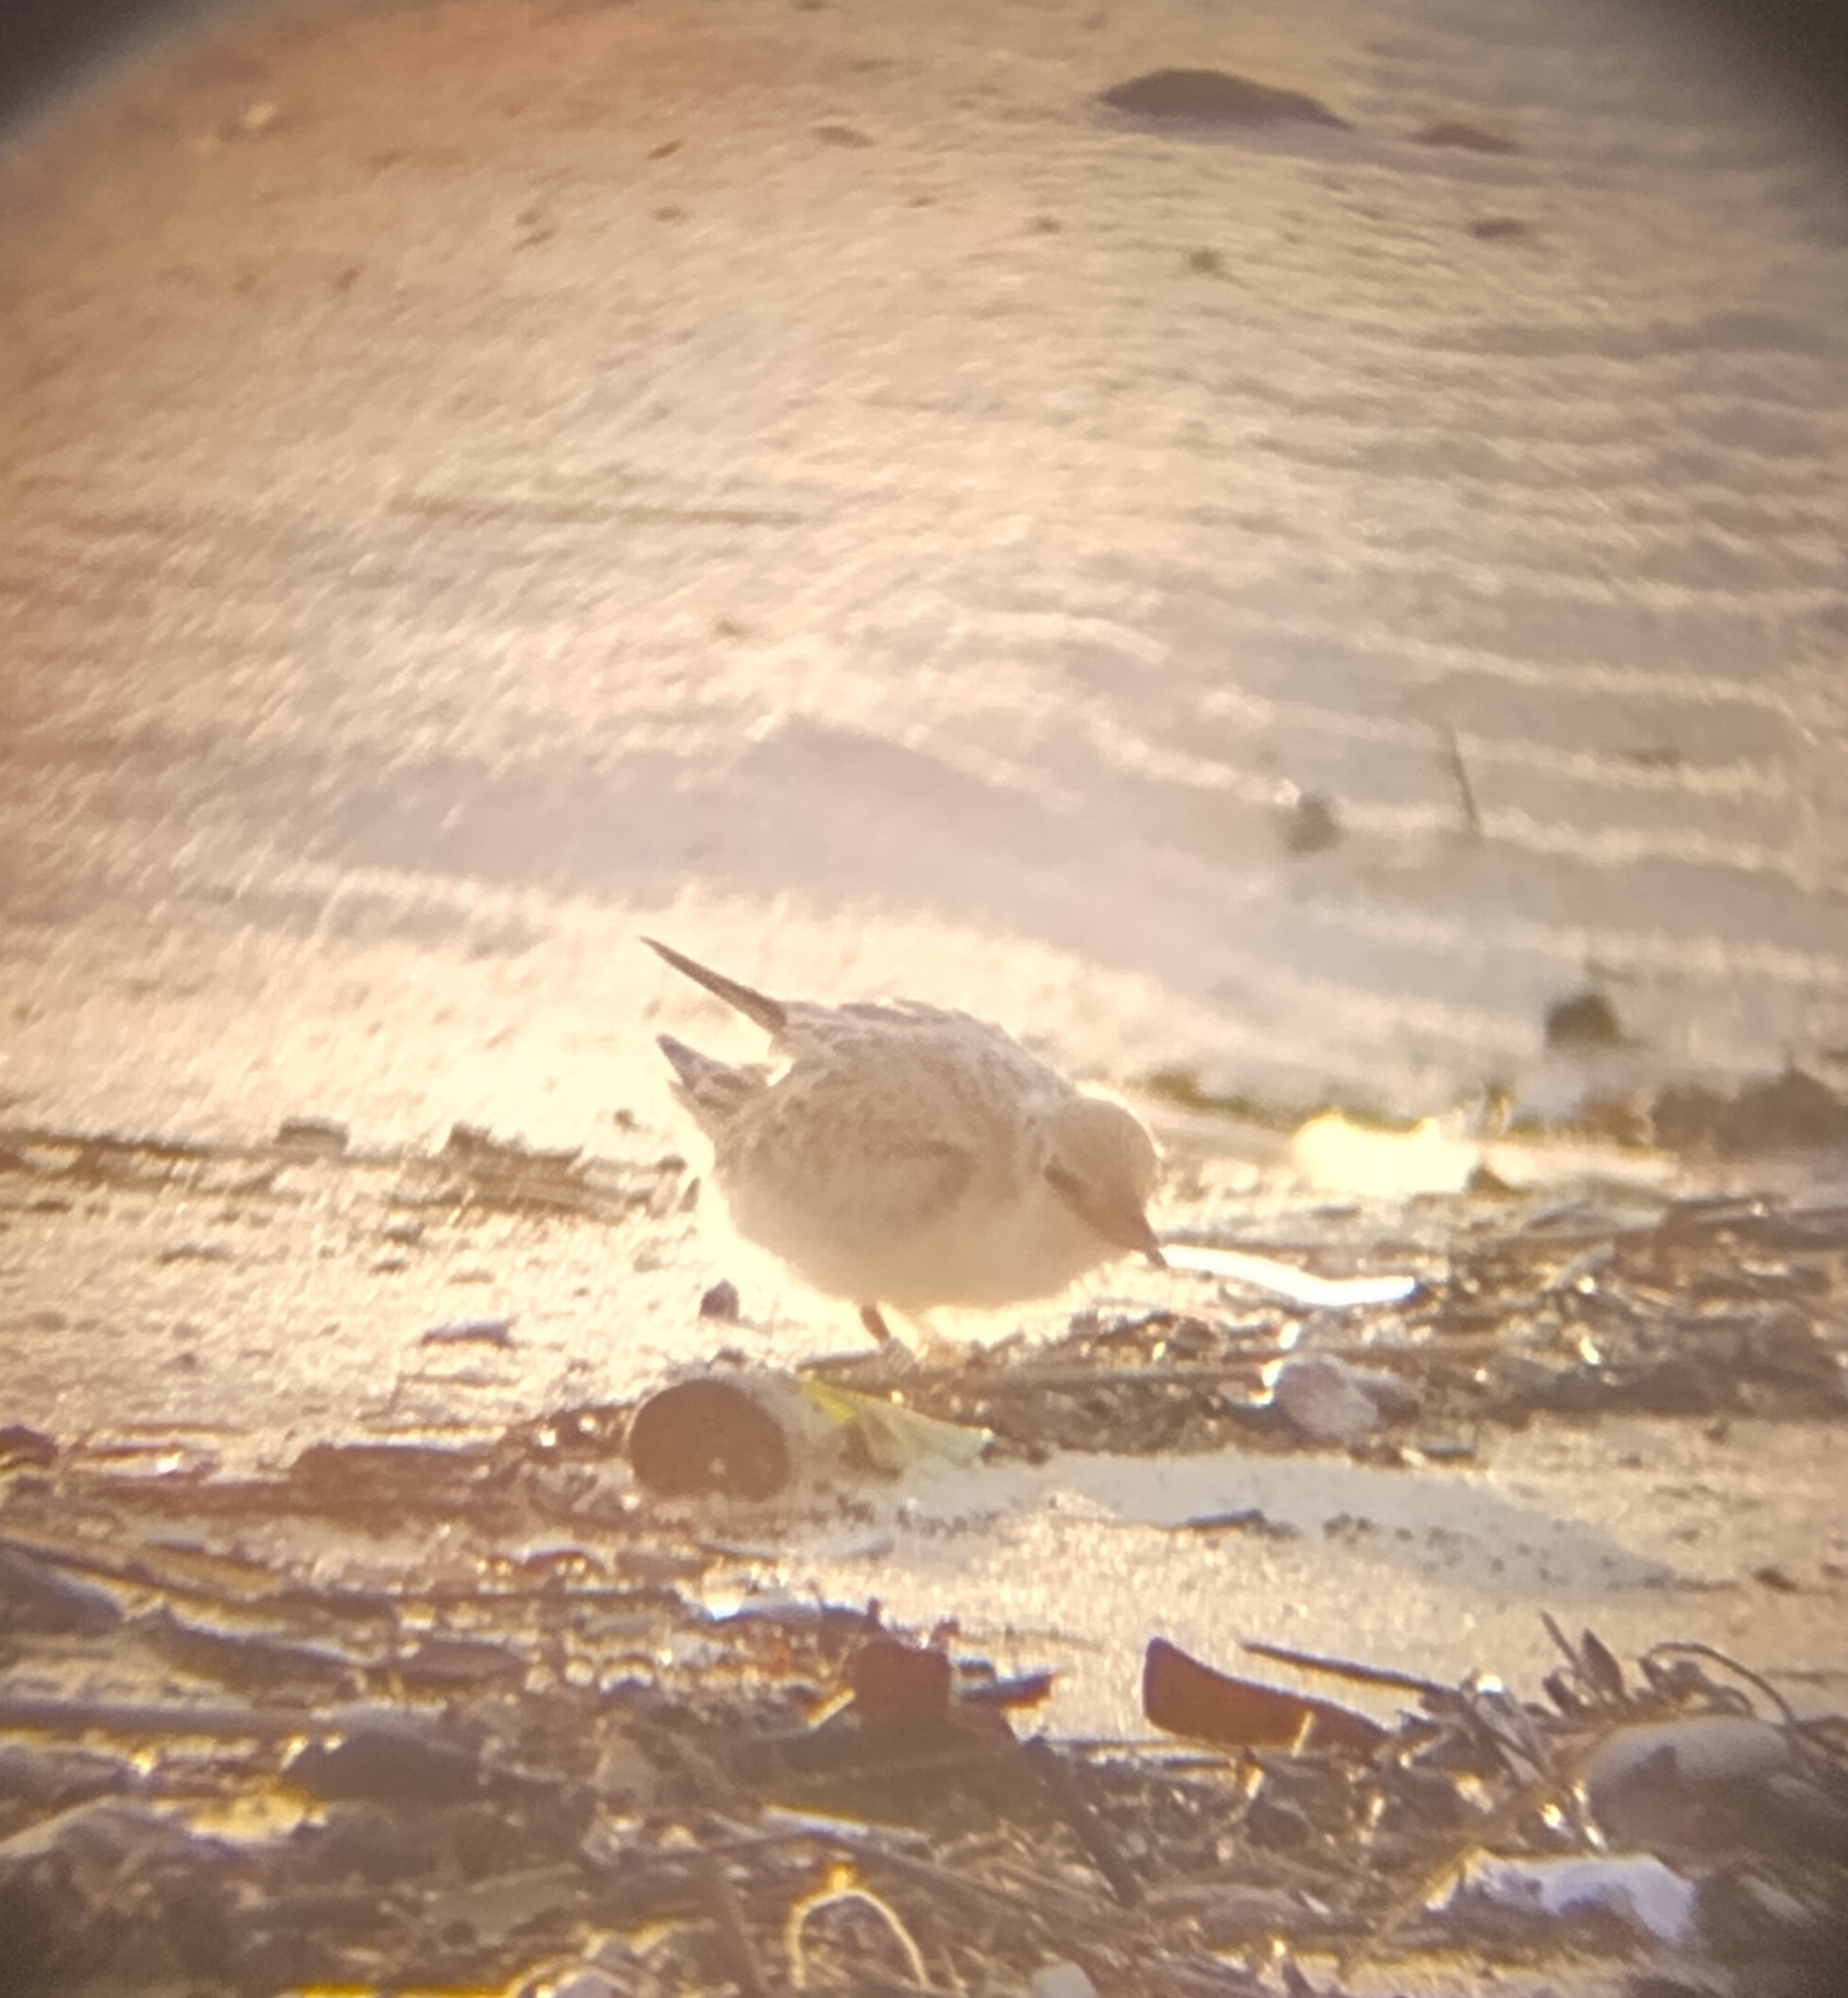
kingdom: Animalia
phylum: Chordata
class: Aves
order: Charadriiformes
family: Laridae
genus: Sternula
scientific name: Sternula antillarum
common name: Least tern
